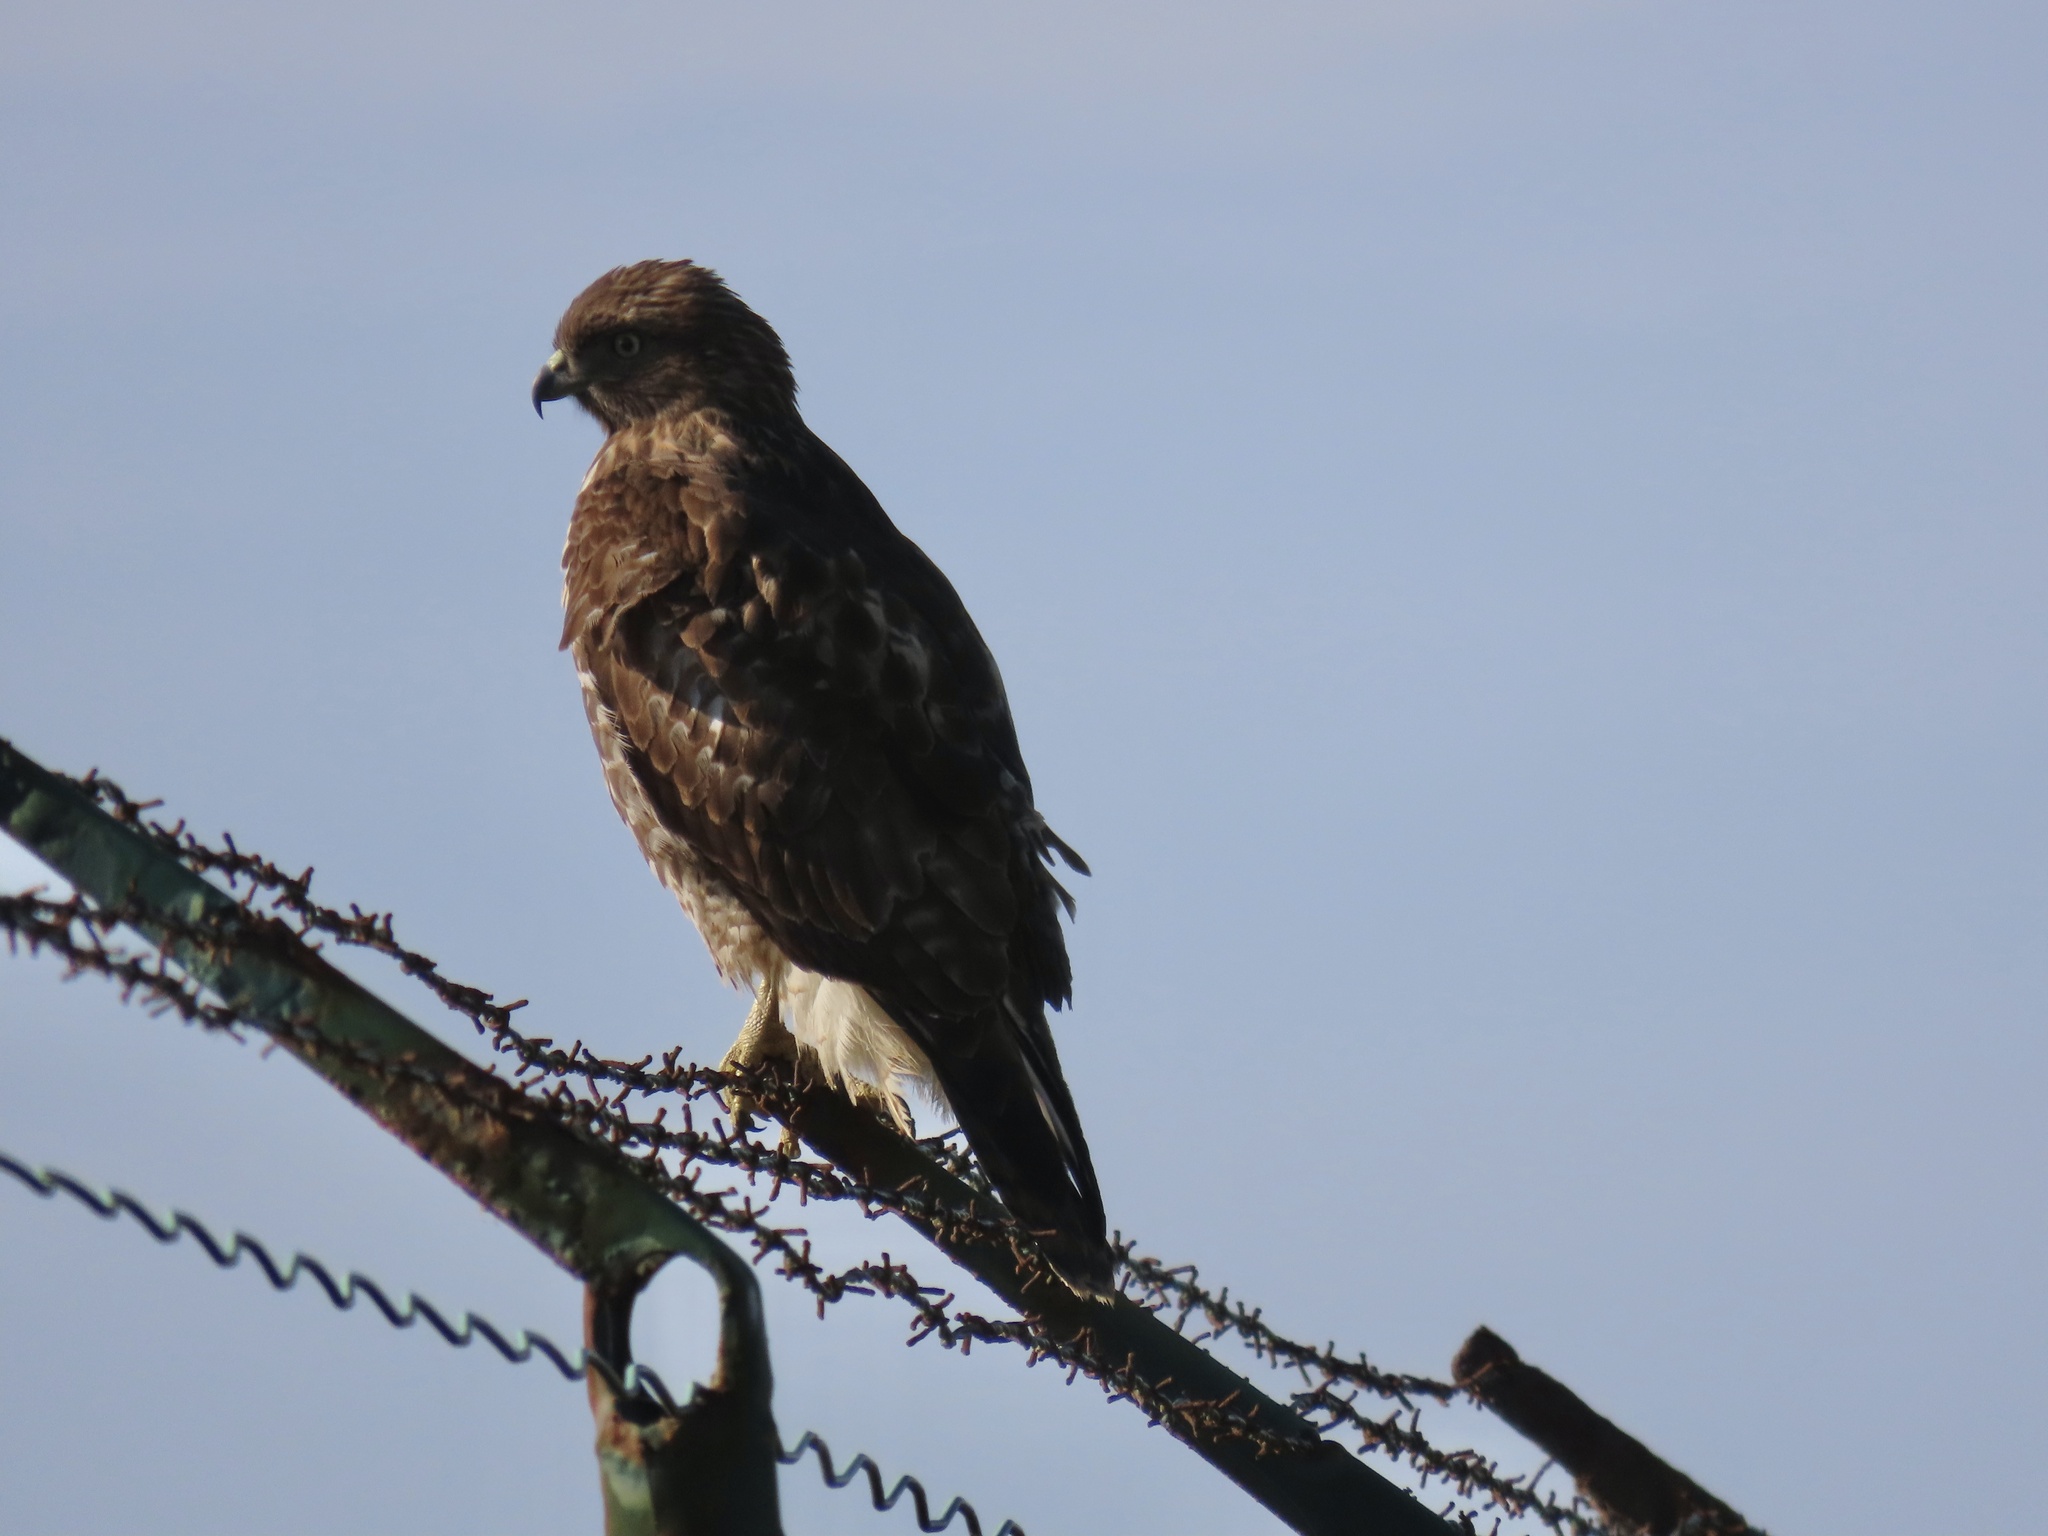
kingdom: Animalia
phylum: Chordata
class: Aves
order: Accipitriformes
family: Accipitridae
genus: Buteo
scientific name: Buteo jamaicensis
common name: Red-tailed hawk
